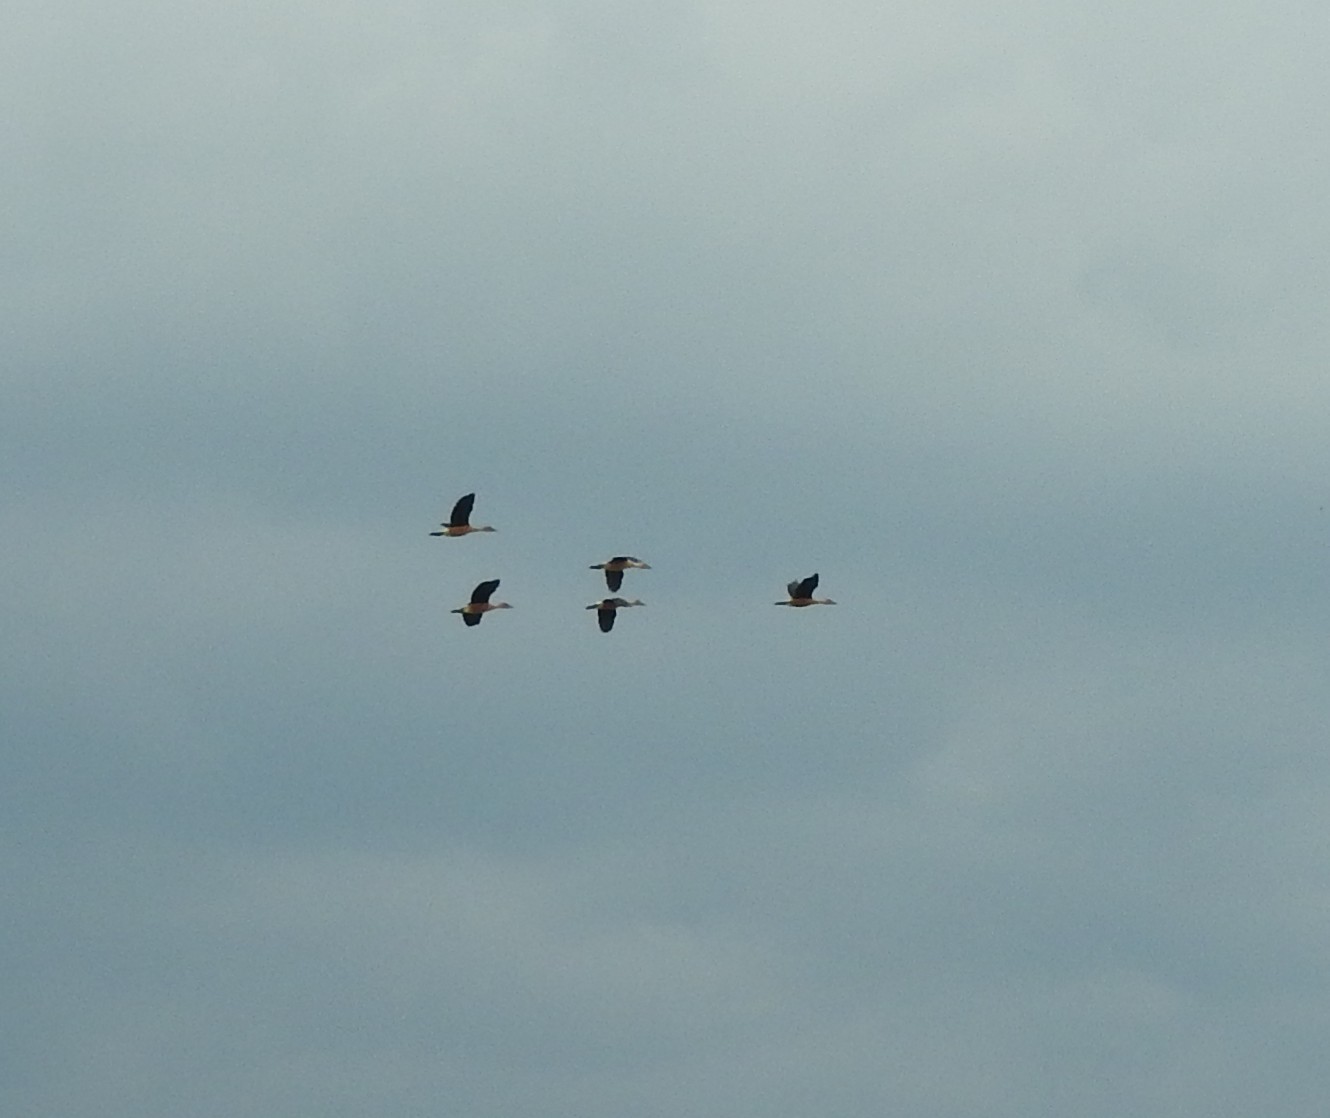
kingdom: Animalia
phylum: Chordata
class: Aves
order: Anseriformes
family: Anatidae
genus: Dendrocygna
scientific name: Dendrocygna bicolor
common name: Fulvous whistling duck
